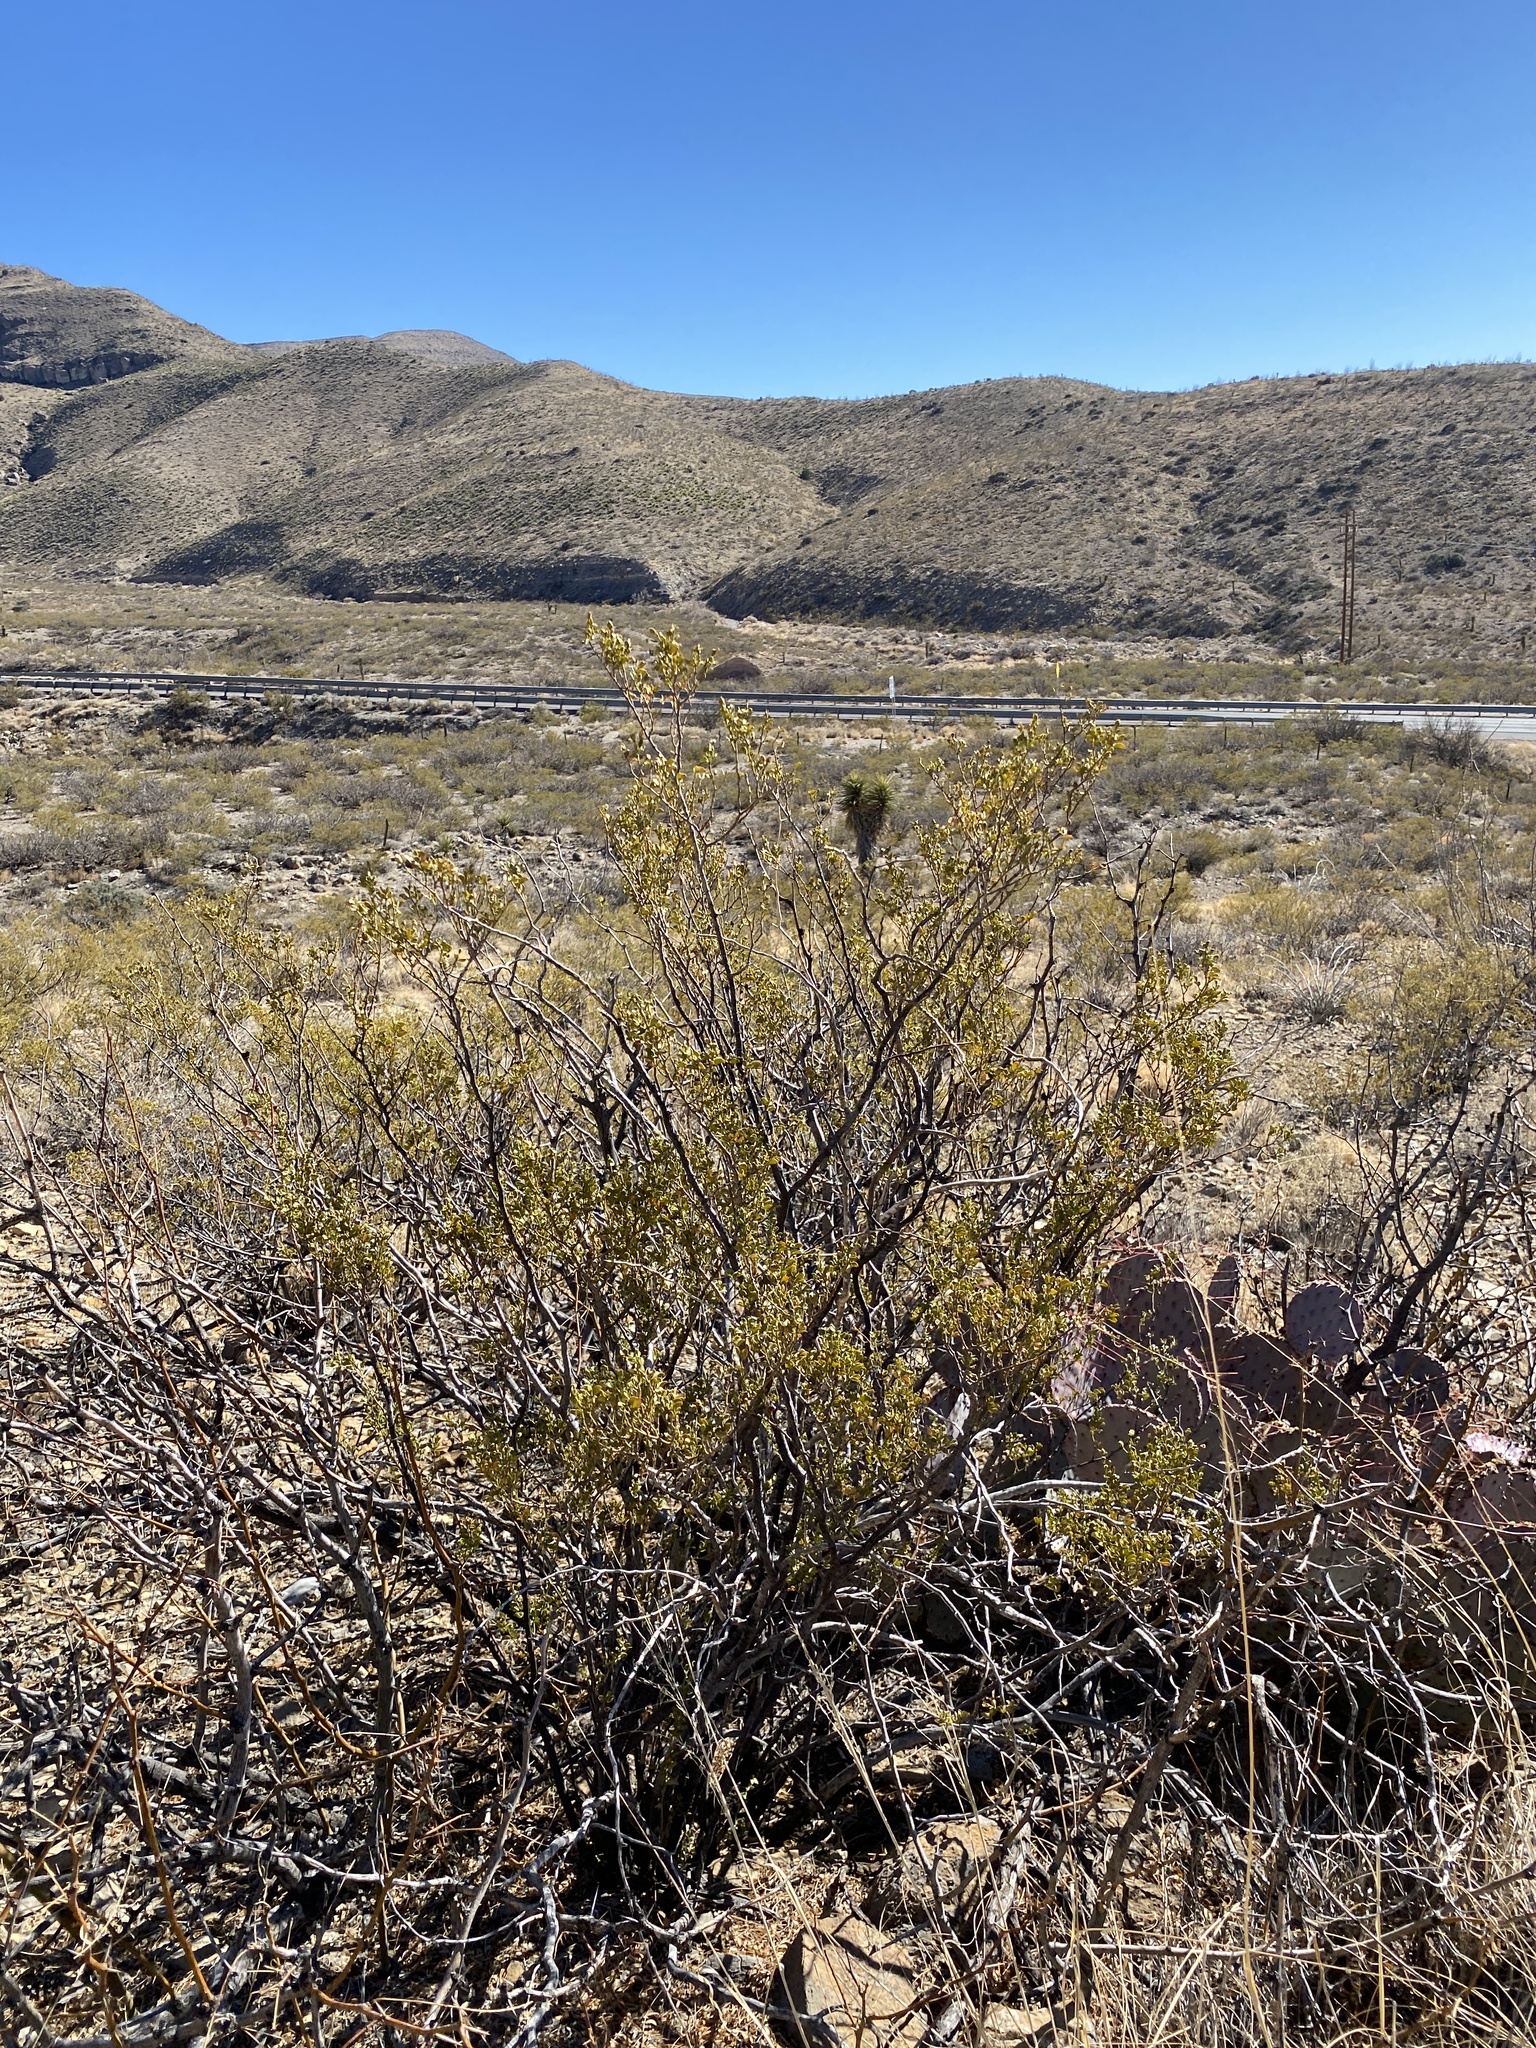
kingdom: Plantae
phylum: Tracheophyta
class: Magnoliopsida
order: Zygophyllales
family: Zygophyllaceae
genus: Larrea
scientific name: Larrea tridentata
